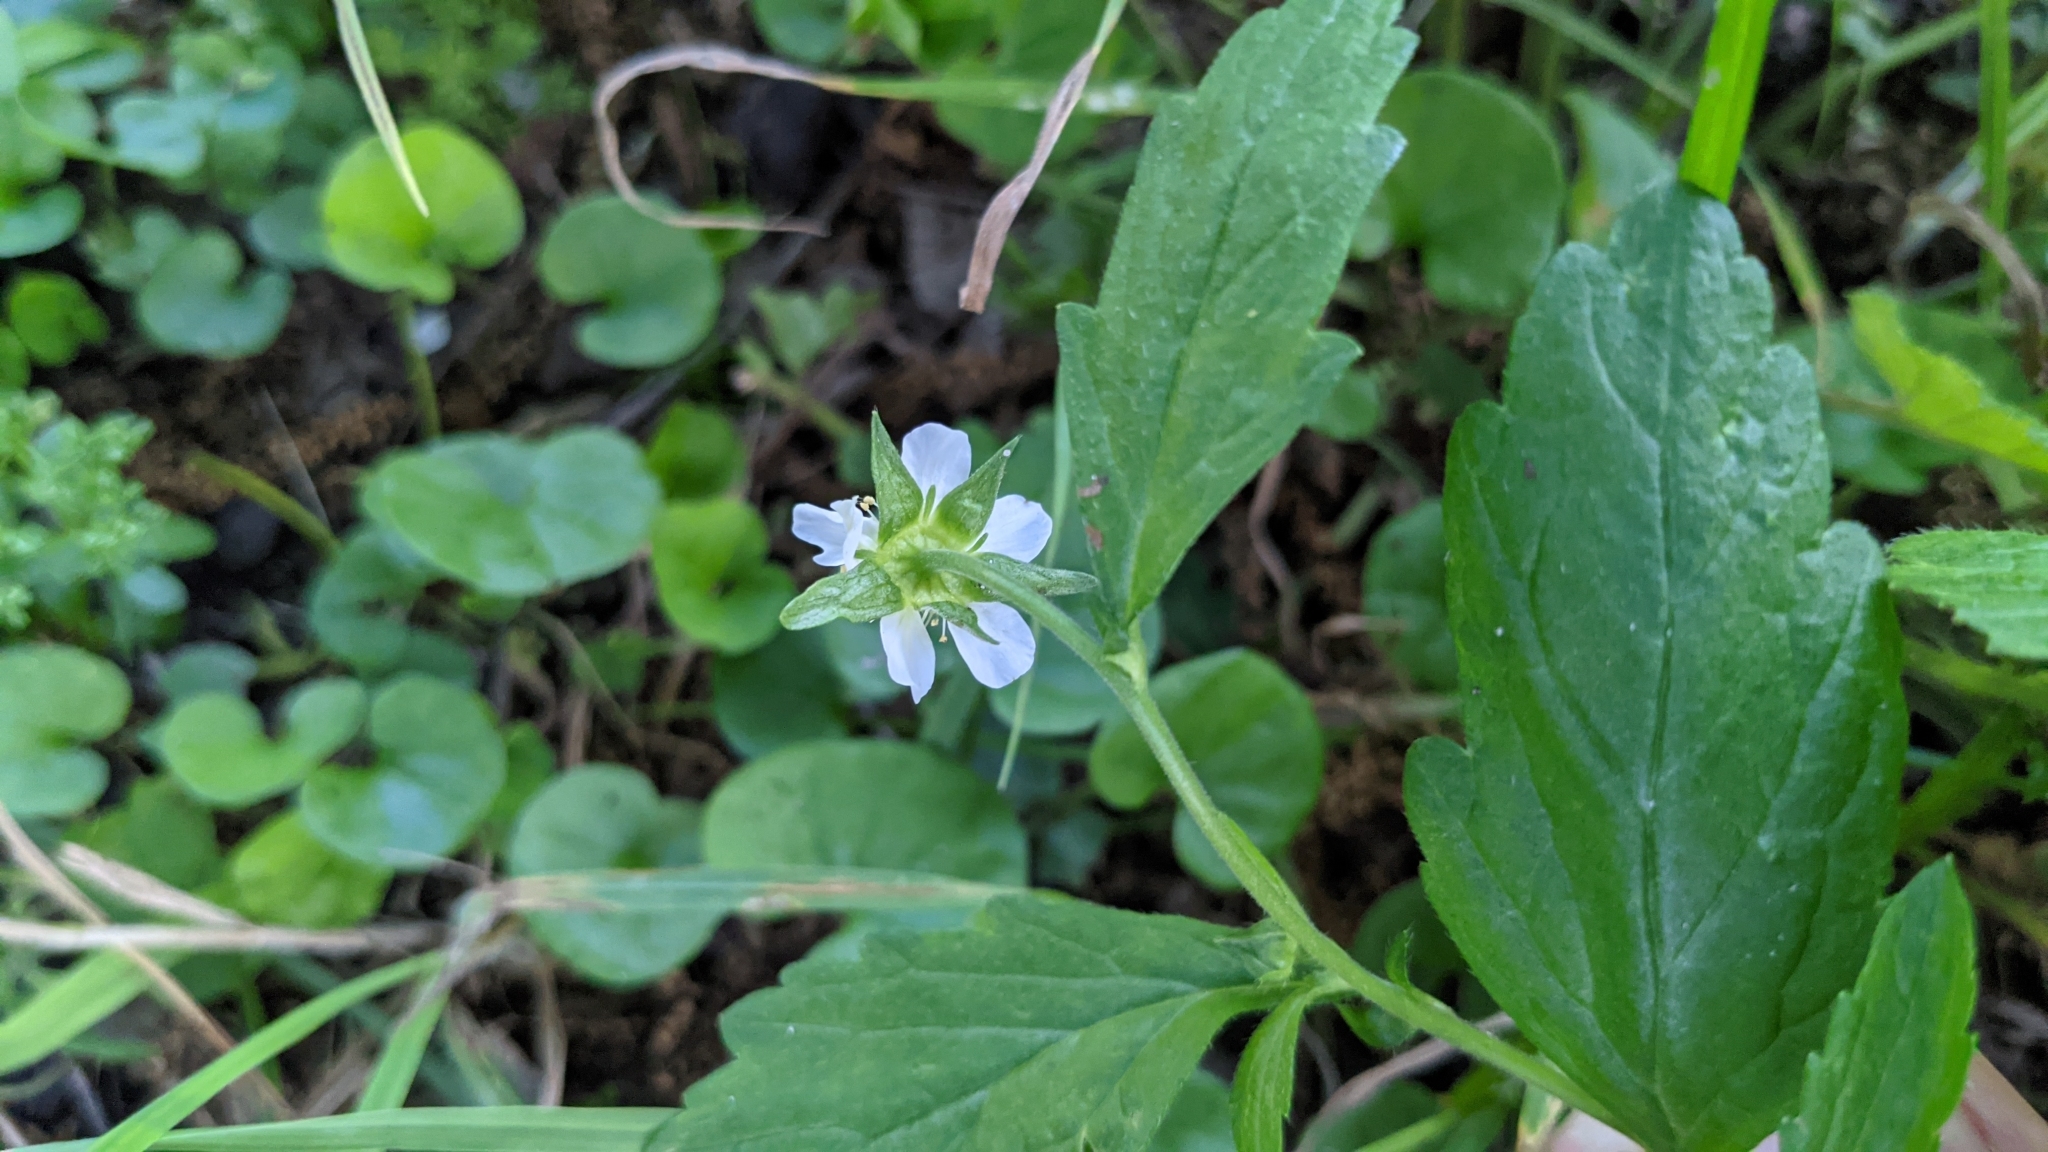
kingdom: Plantae
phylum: Tracheophyta
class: Magnoliopsida
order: Rosales
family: Rosaceae
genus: Geum
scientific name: Geum canadense
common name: White avens
